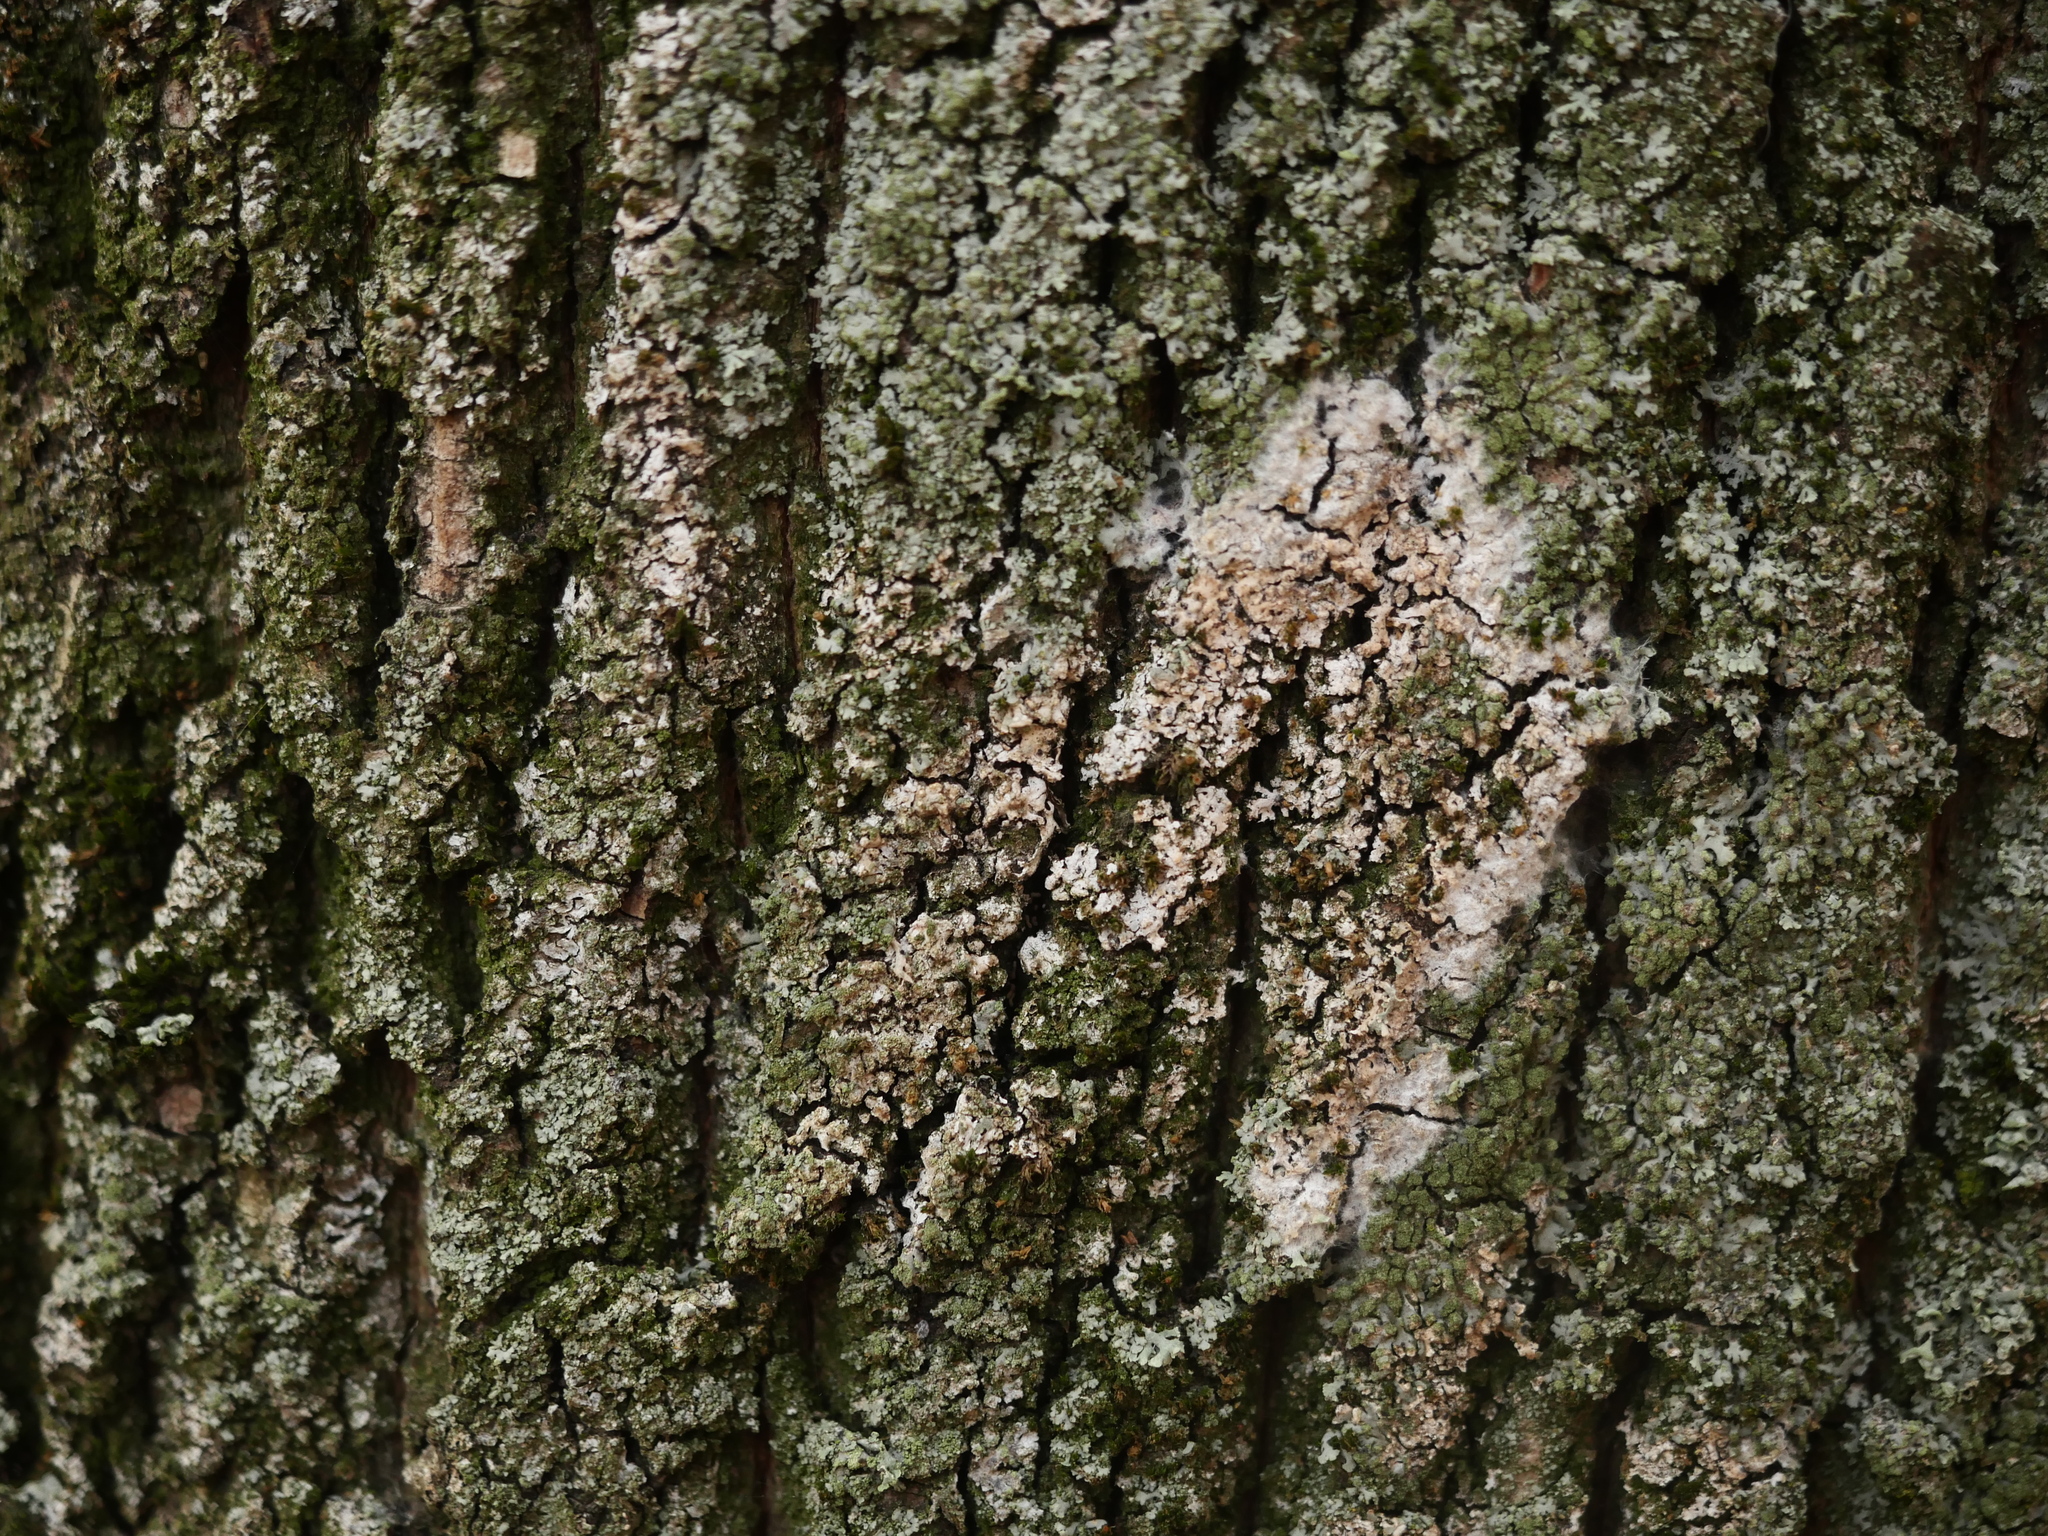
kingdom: Fungi
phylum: Basidiomycota
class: Agaricomycetes
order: Atheliales
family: Atheliaceae
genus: Athelia
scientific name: Athelia arachnoidea
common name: Candelabra duster
